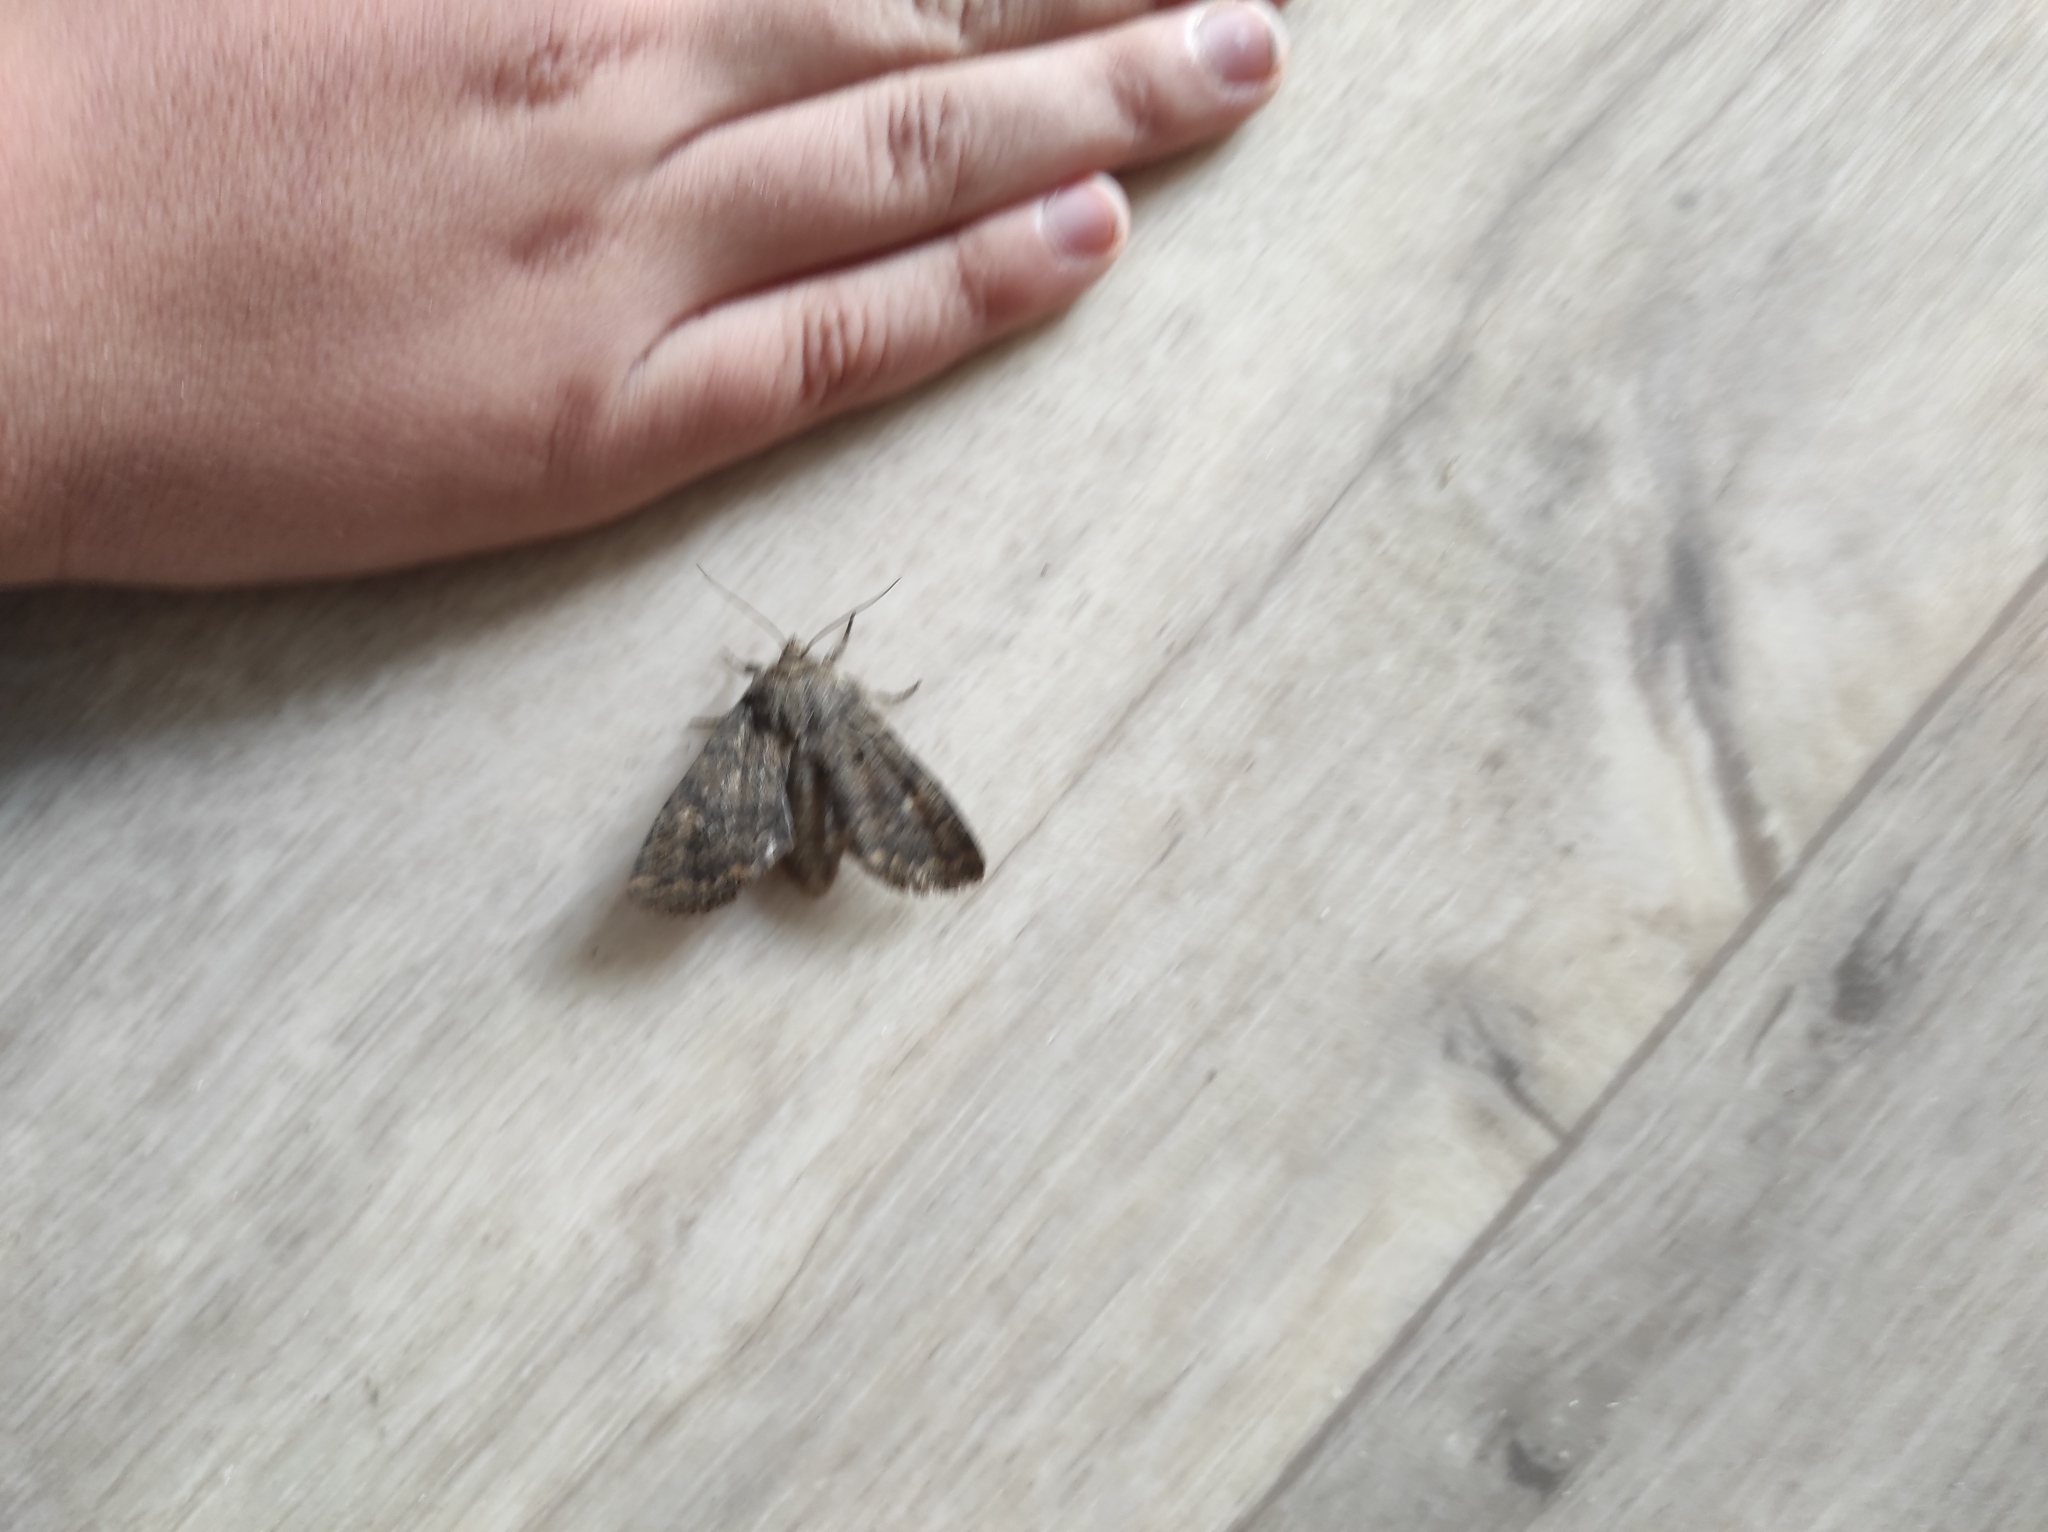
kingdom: Animalia
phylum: Arthropoda
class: Insecta
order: Lepidoptera
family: Noctuidae
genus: Dasypolia
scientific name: Dasypolia templi
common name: Brindled ochre
